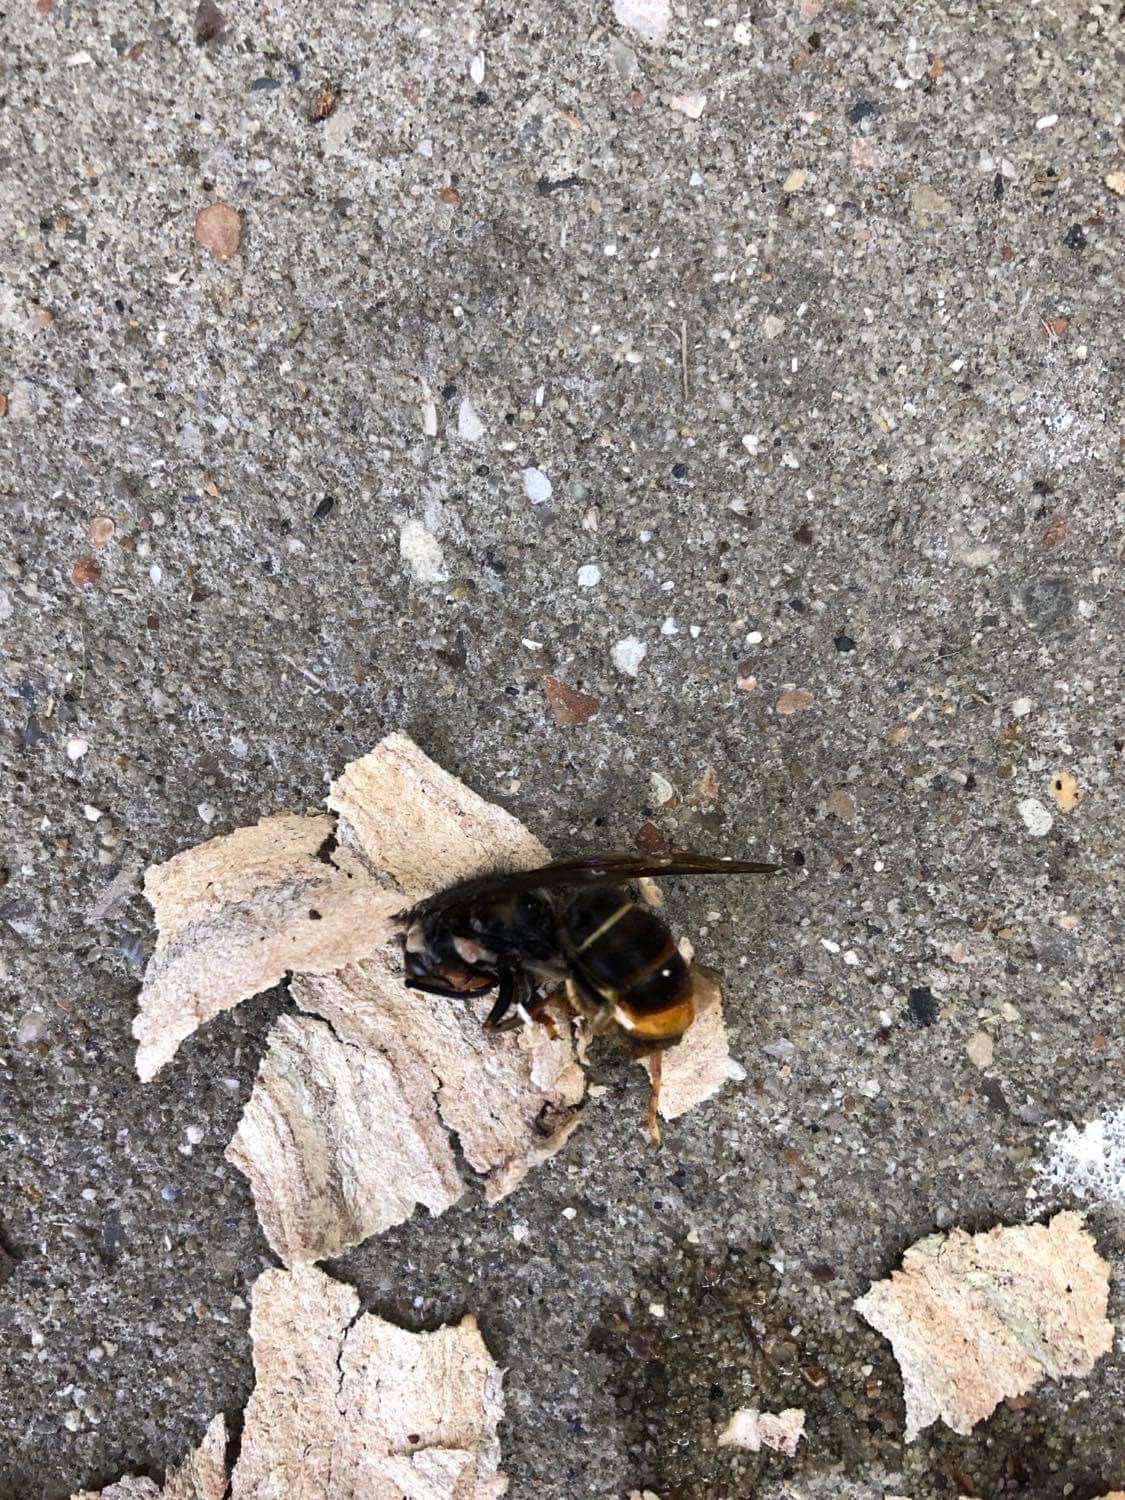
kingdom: Animalia
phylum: Arthropoda
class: Insecta
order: Hymenoptera
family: Vespidae
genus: Vespa
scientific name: Vespa velutina
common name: Asian hornet
